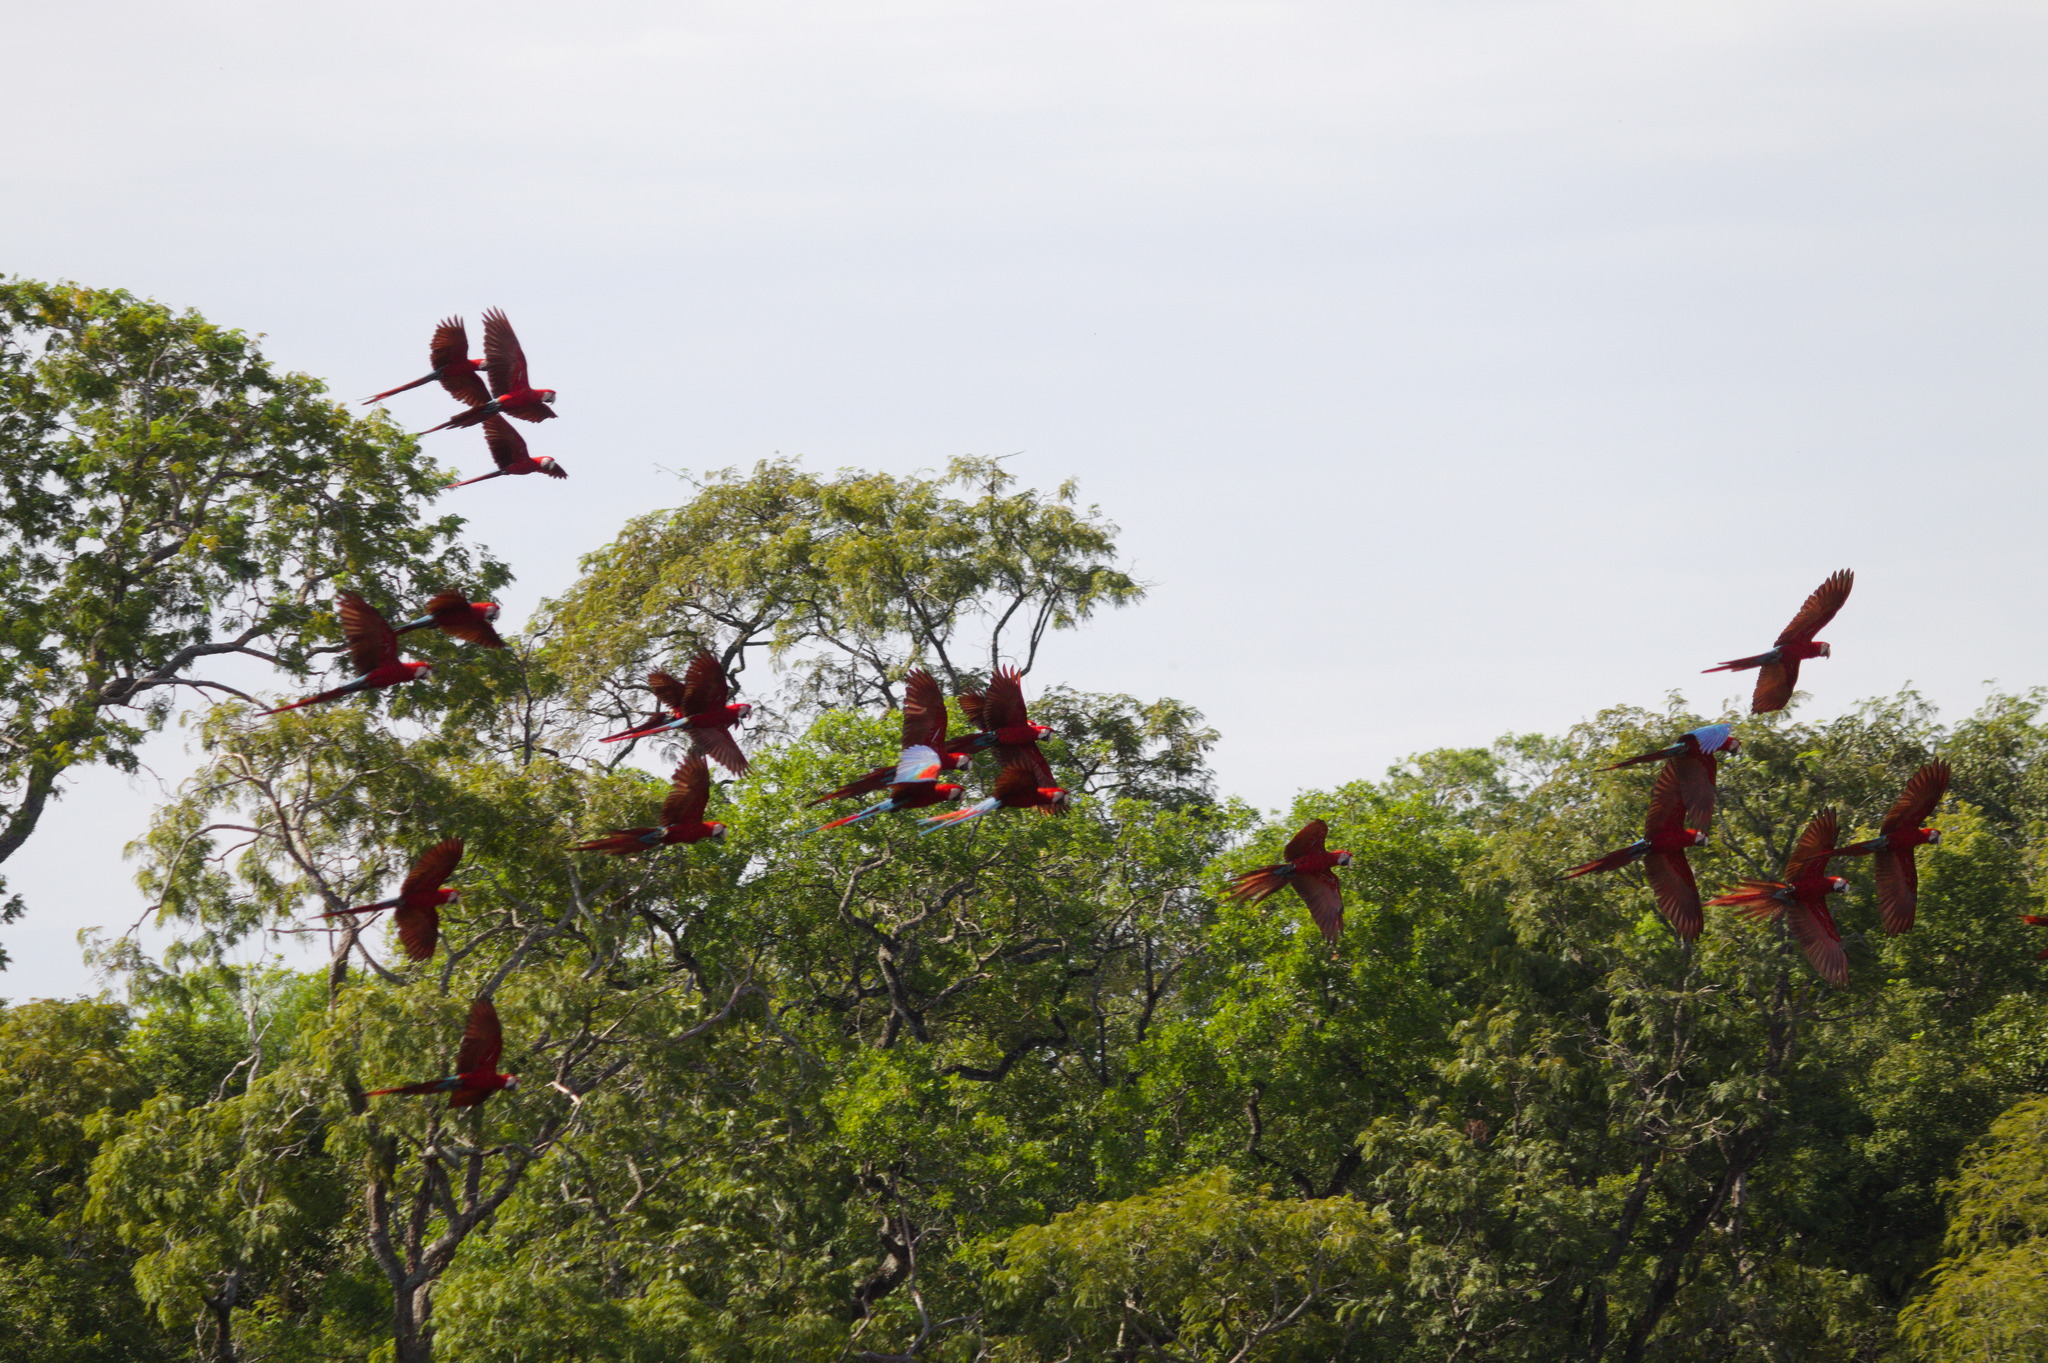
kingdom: Animalia
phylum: Chordata
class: Aves
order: Psittaciformes
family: Psittacidae
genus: Ara
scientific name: Ara chloropterus
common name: Red-and-green macaw
